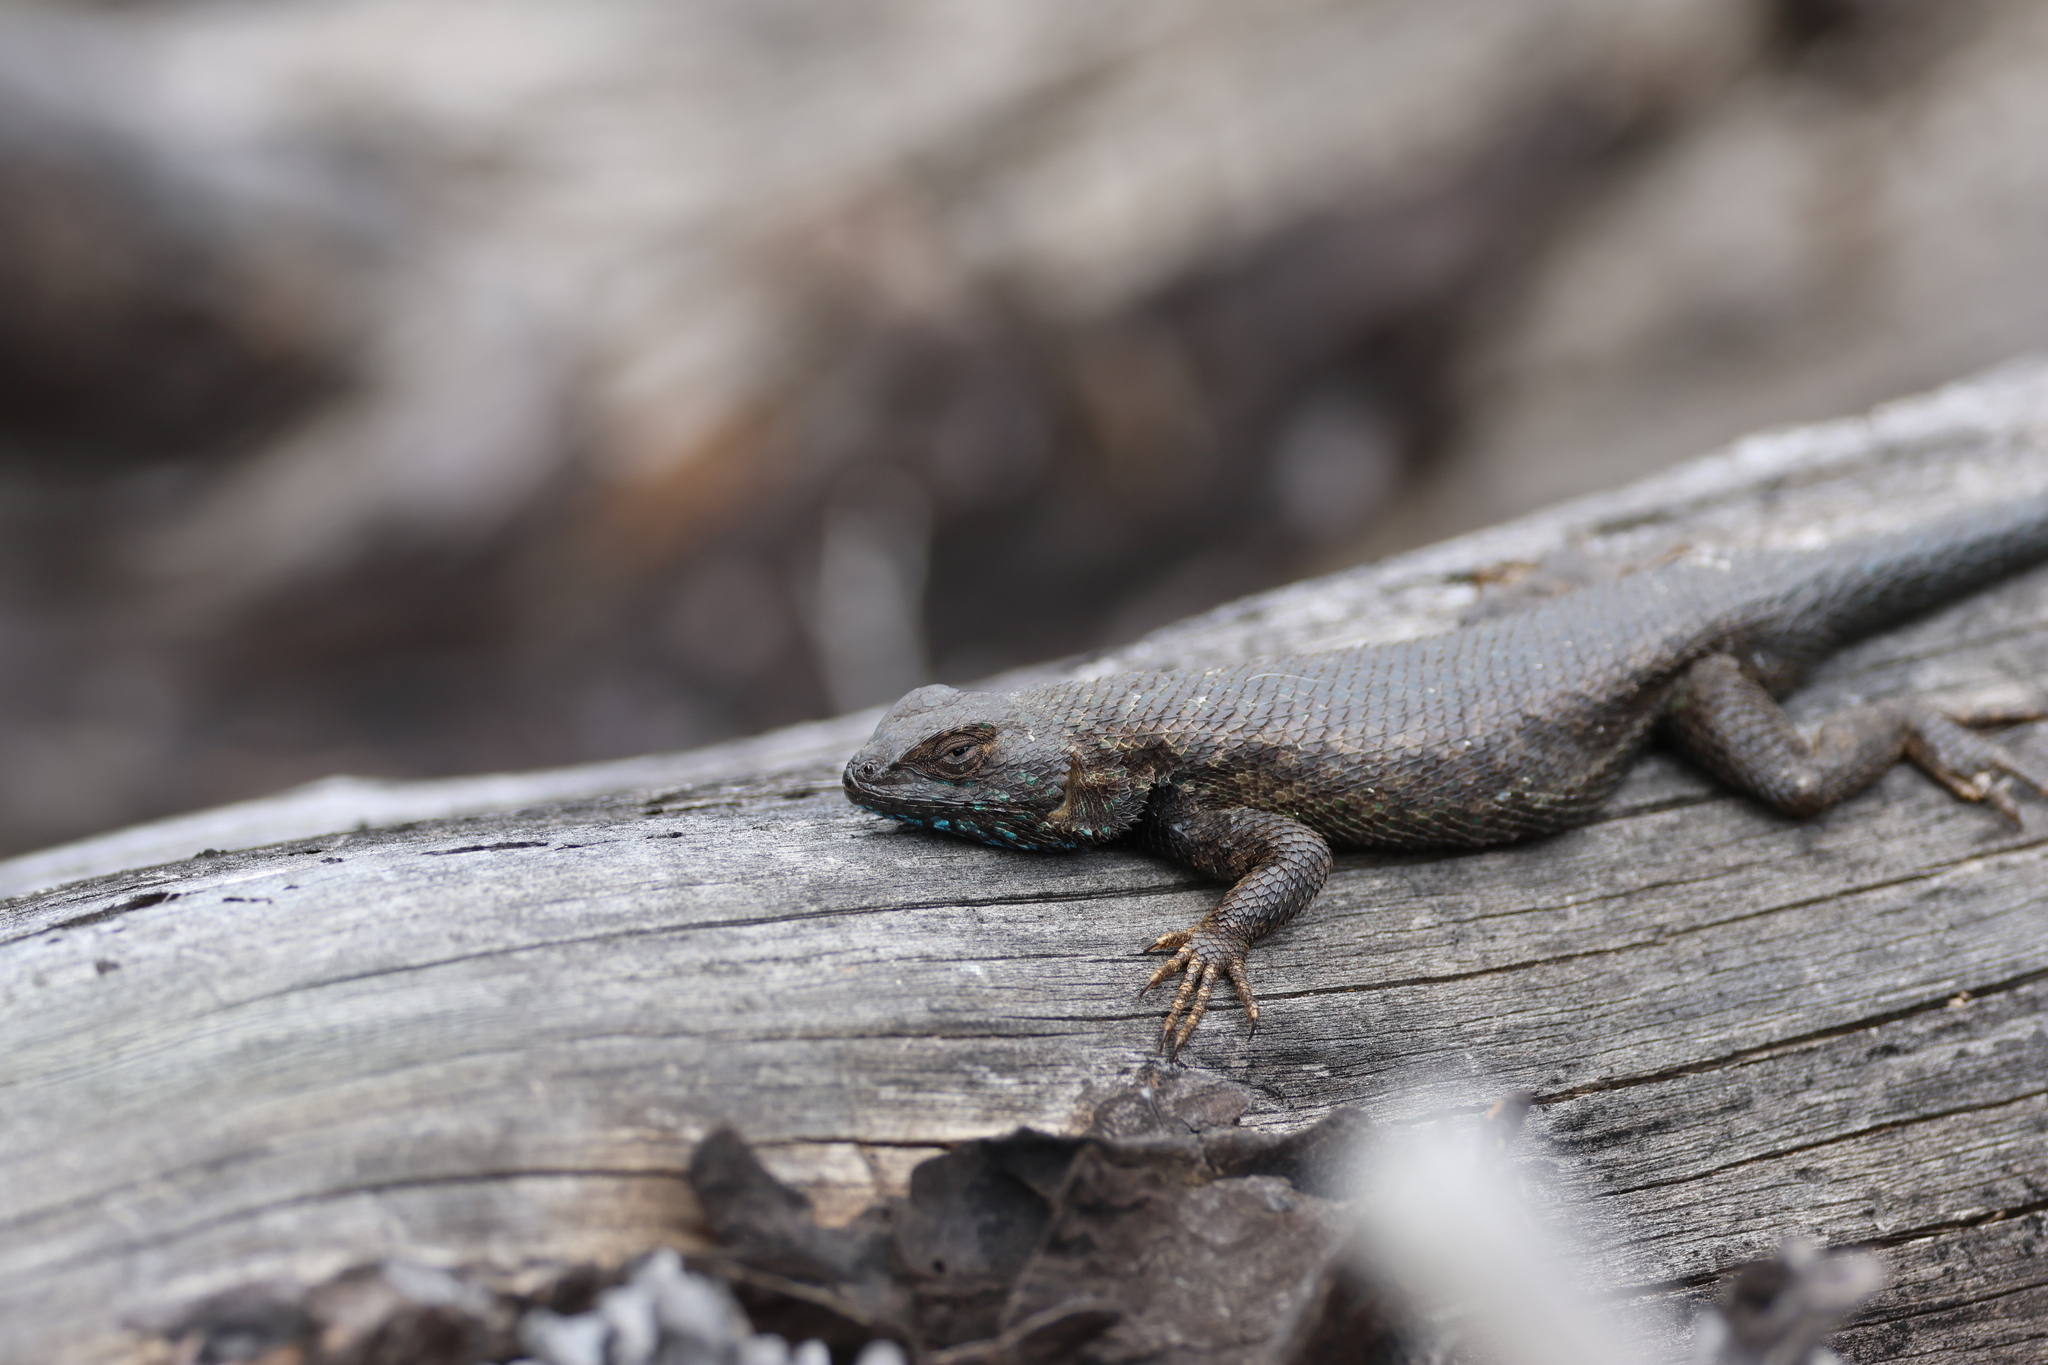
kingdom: Animalia
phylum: Chordata
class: Squamata
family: Phrynosomatidae
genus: Sceloporus
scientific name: Sceloporus occidentalis
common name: Western fence lizard
